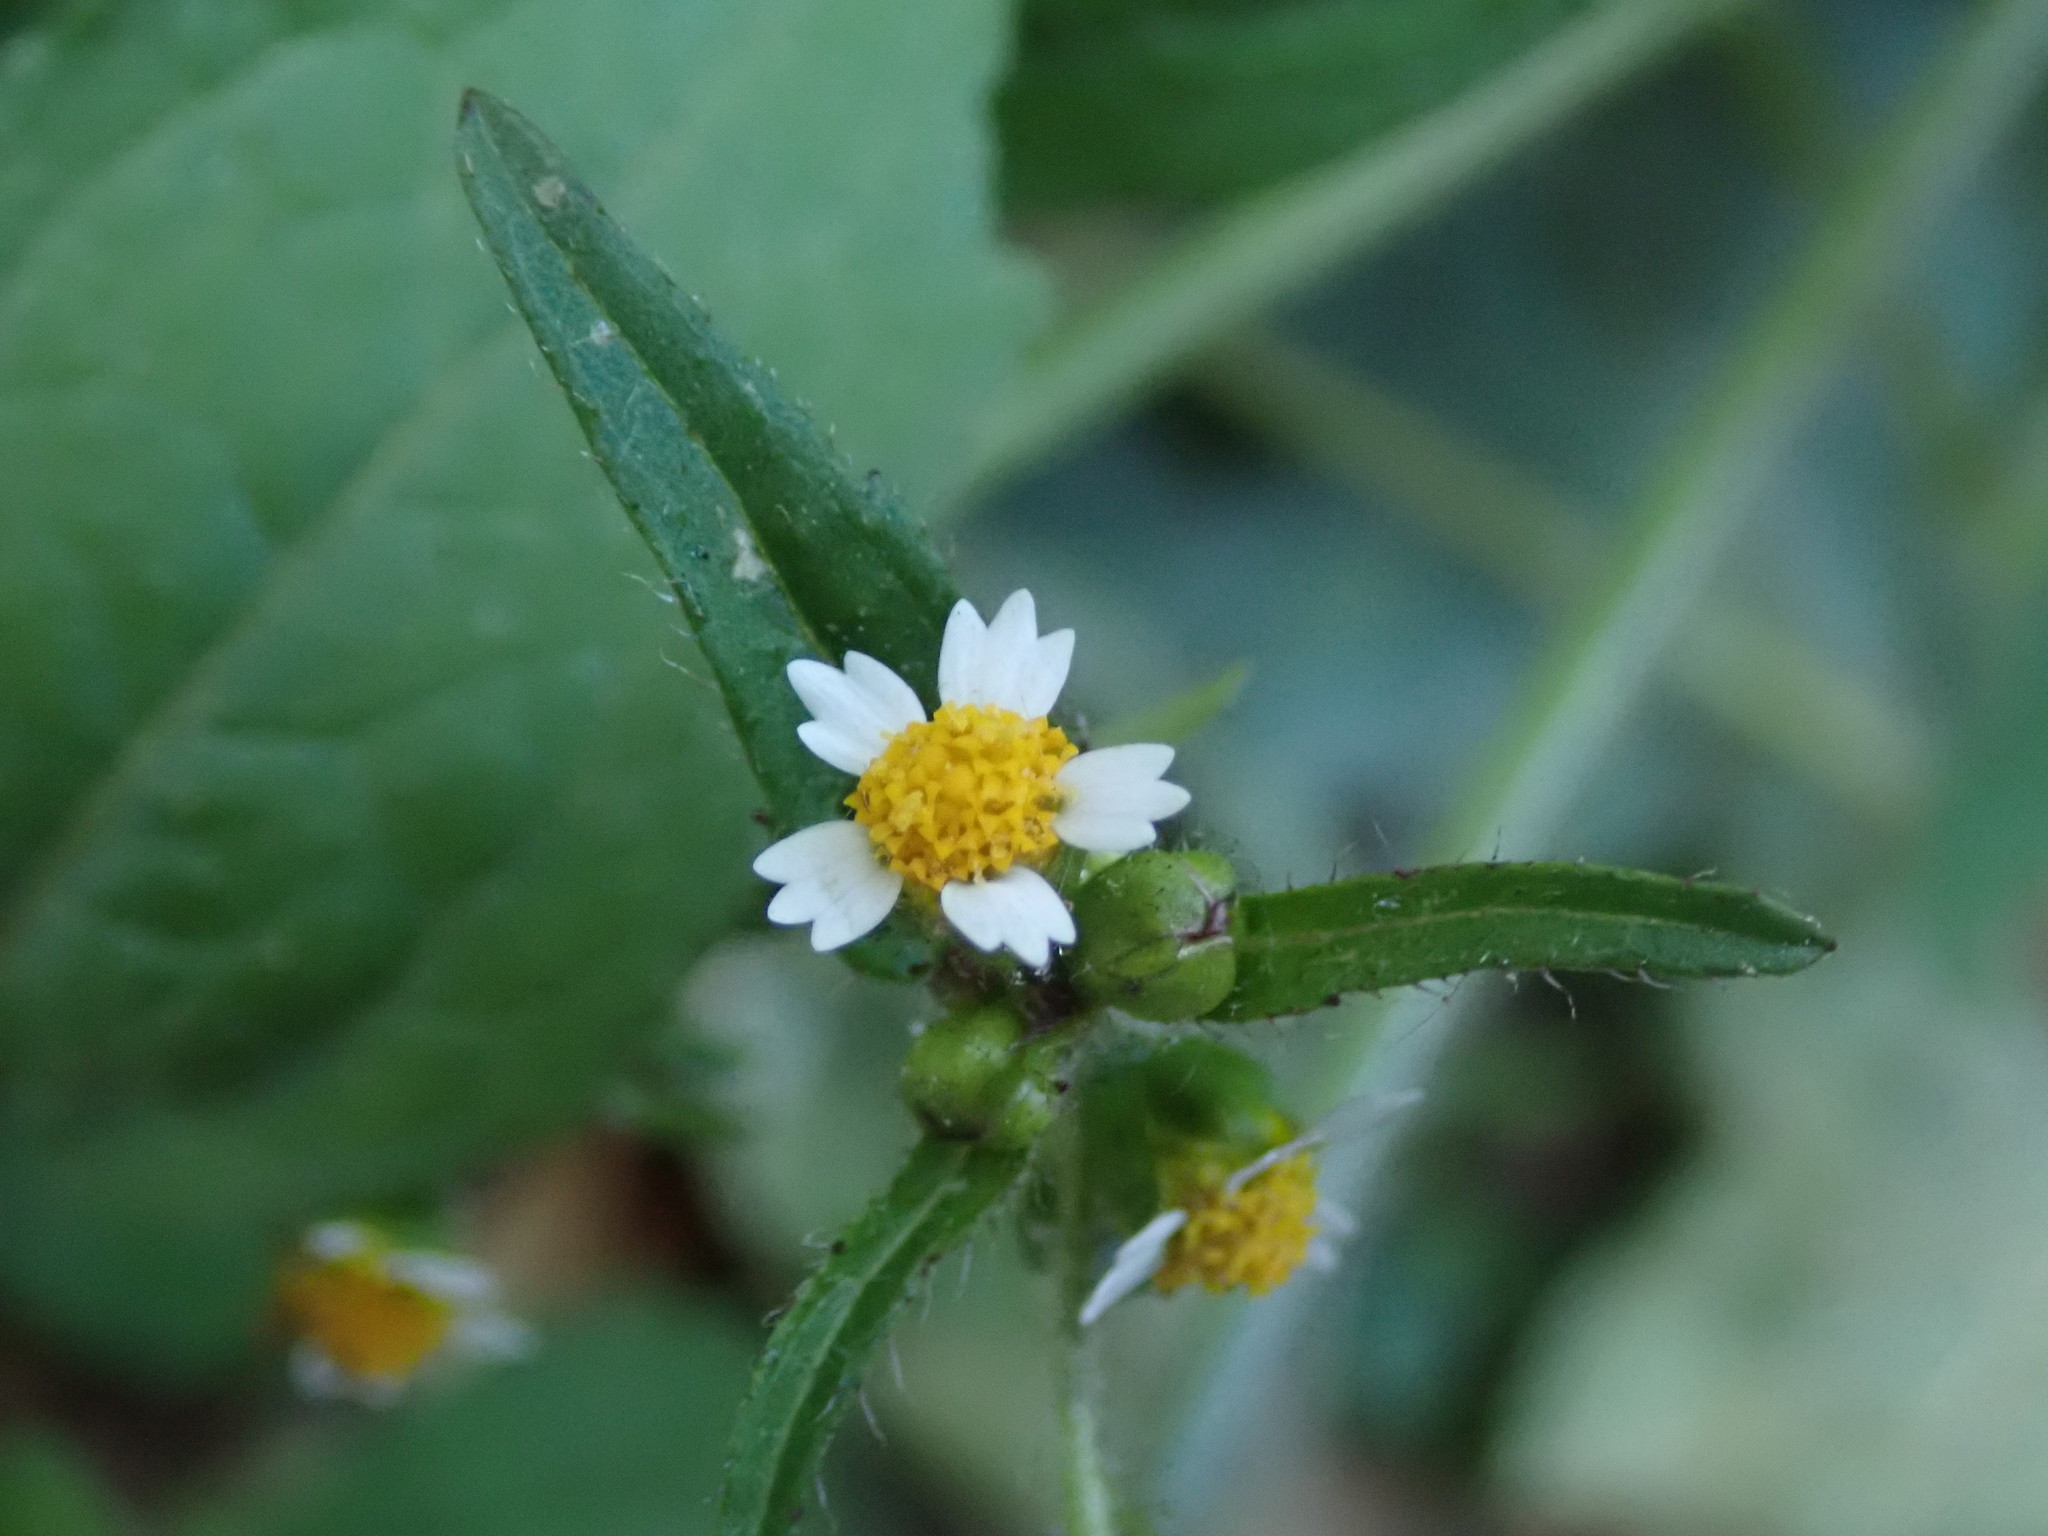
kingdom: Plantae
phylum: Tracheophyta
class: Magnoliopsida
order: Asterales
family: Asteraceae
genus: Galinsoga
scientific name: Galinsoga quadriradiata
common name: Shaggy soldier
